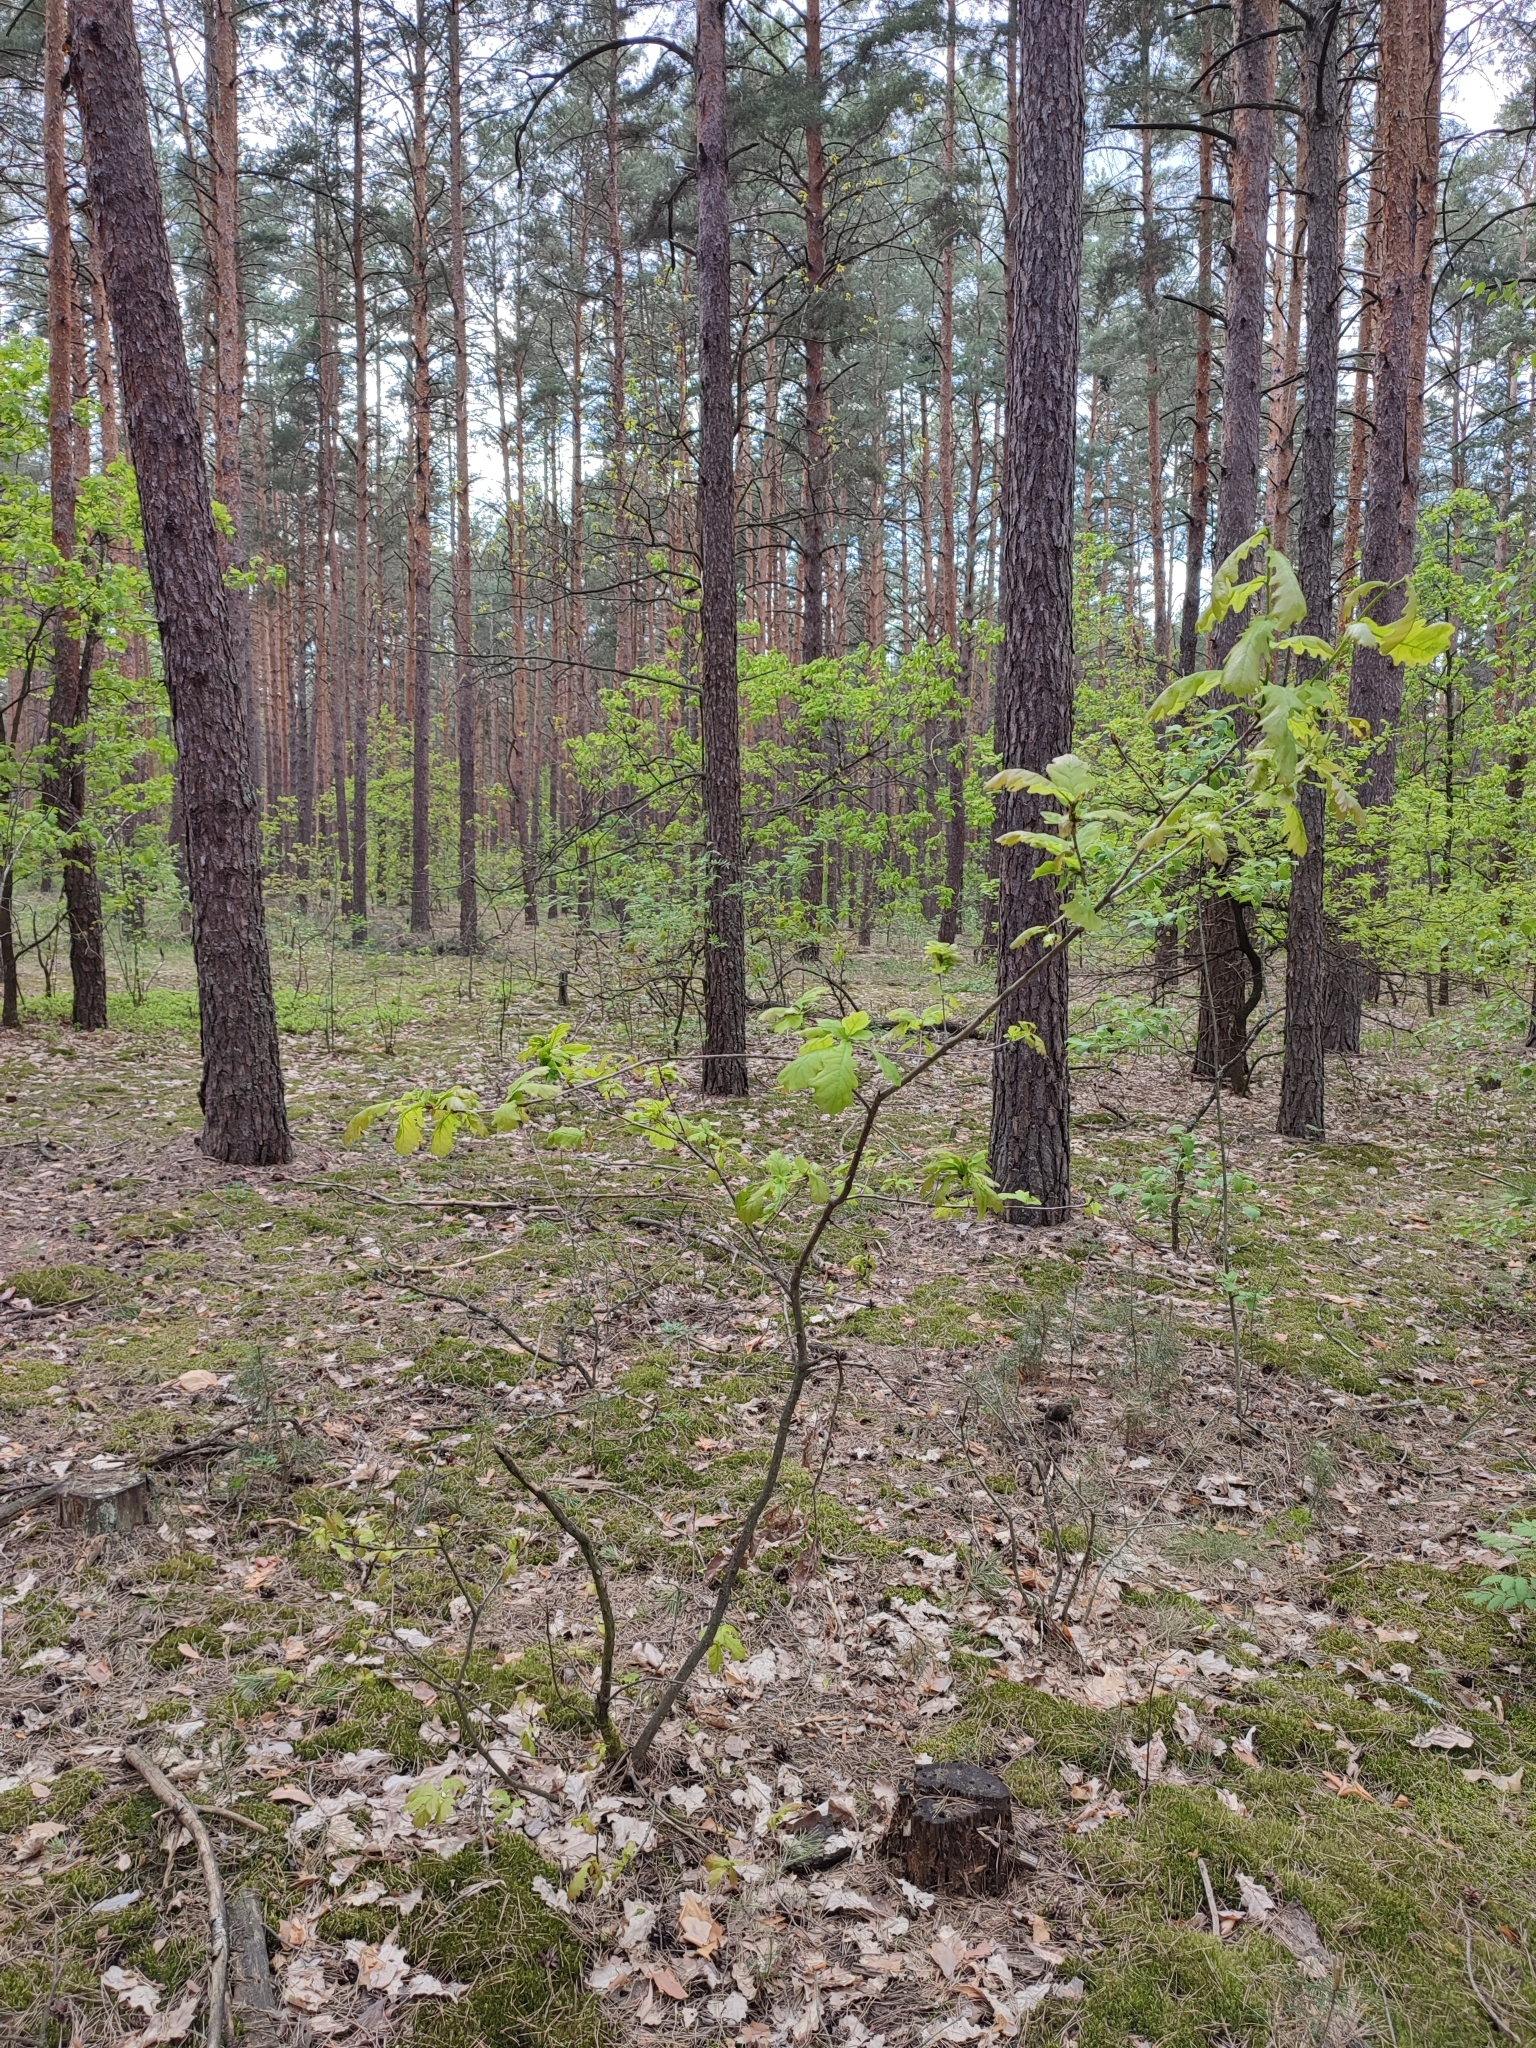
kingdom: Plantae
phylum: Tracheophyta
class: Magnoliopsida
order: Fagales
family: Fagaceae
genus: Quercus
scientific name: Quercus robur
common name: Pedunculate oak
